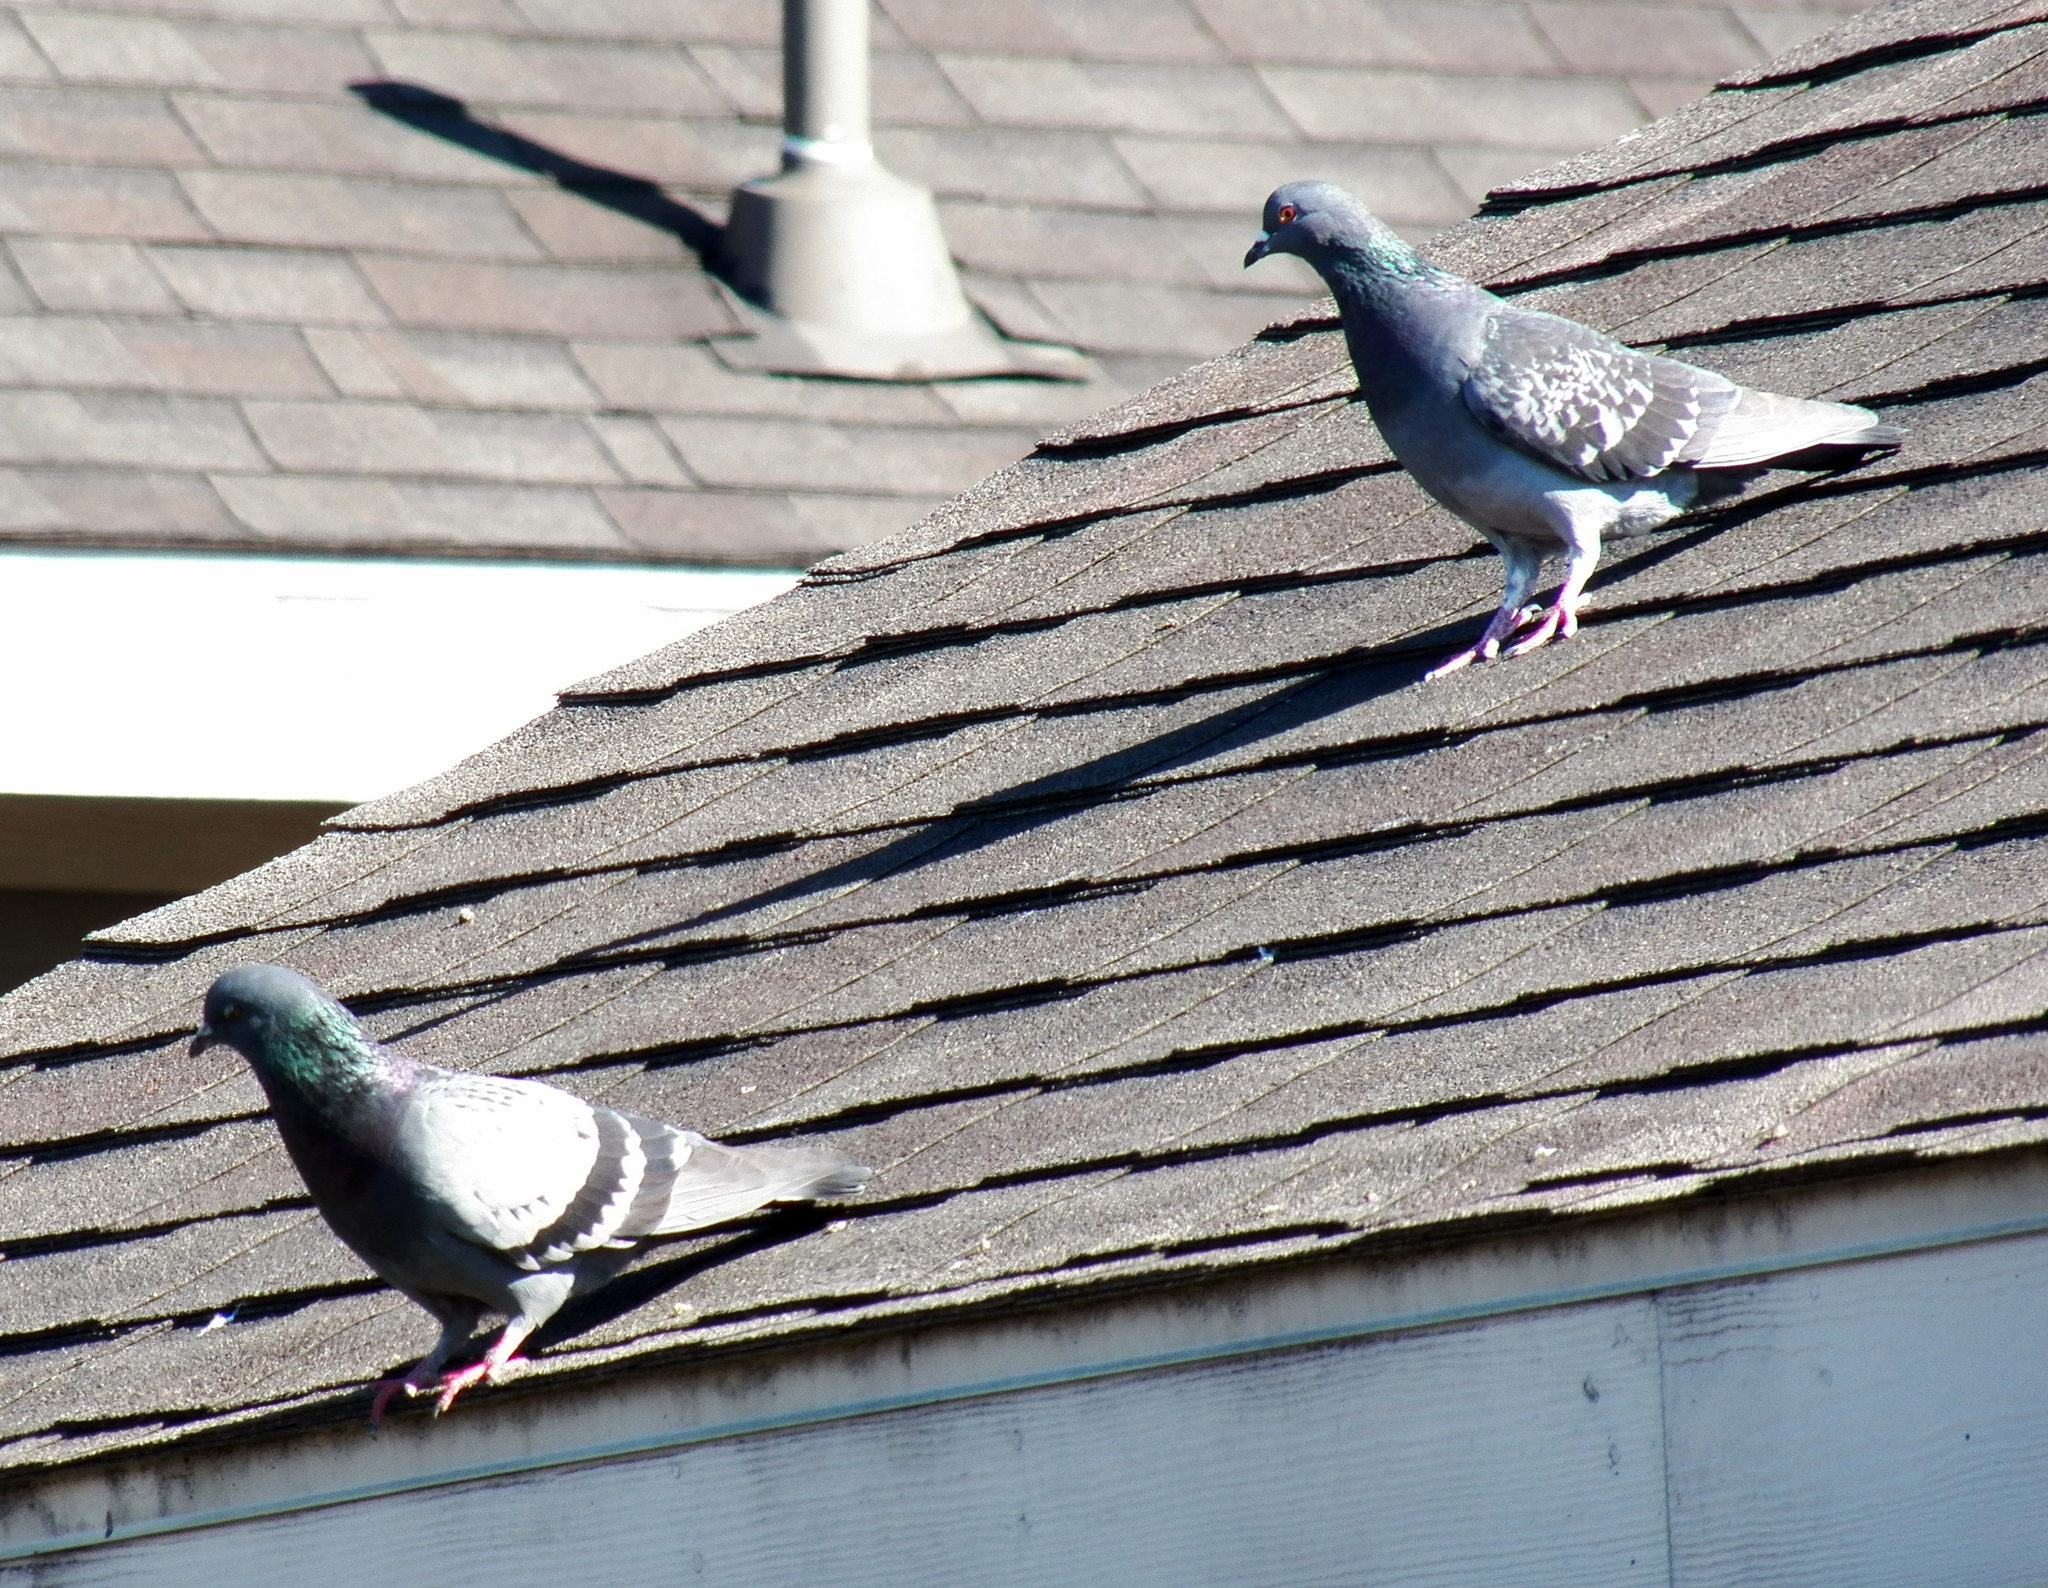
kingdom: Animalia
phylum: Chordata
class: Aves
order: Columbiformes
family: Columbidae
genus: Columba
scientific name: Columba livia
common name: Rock pigeon
